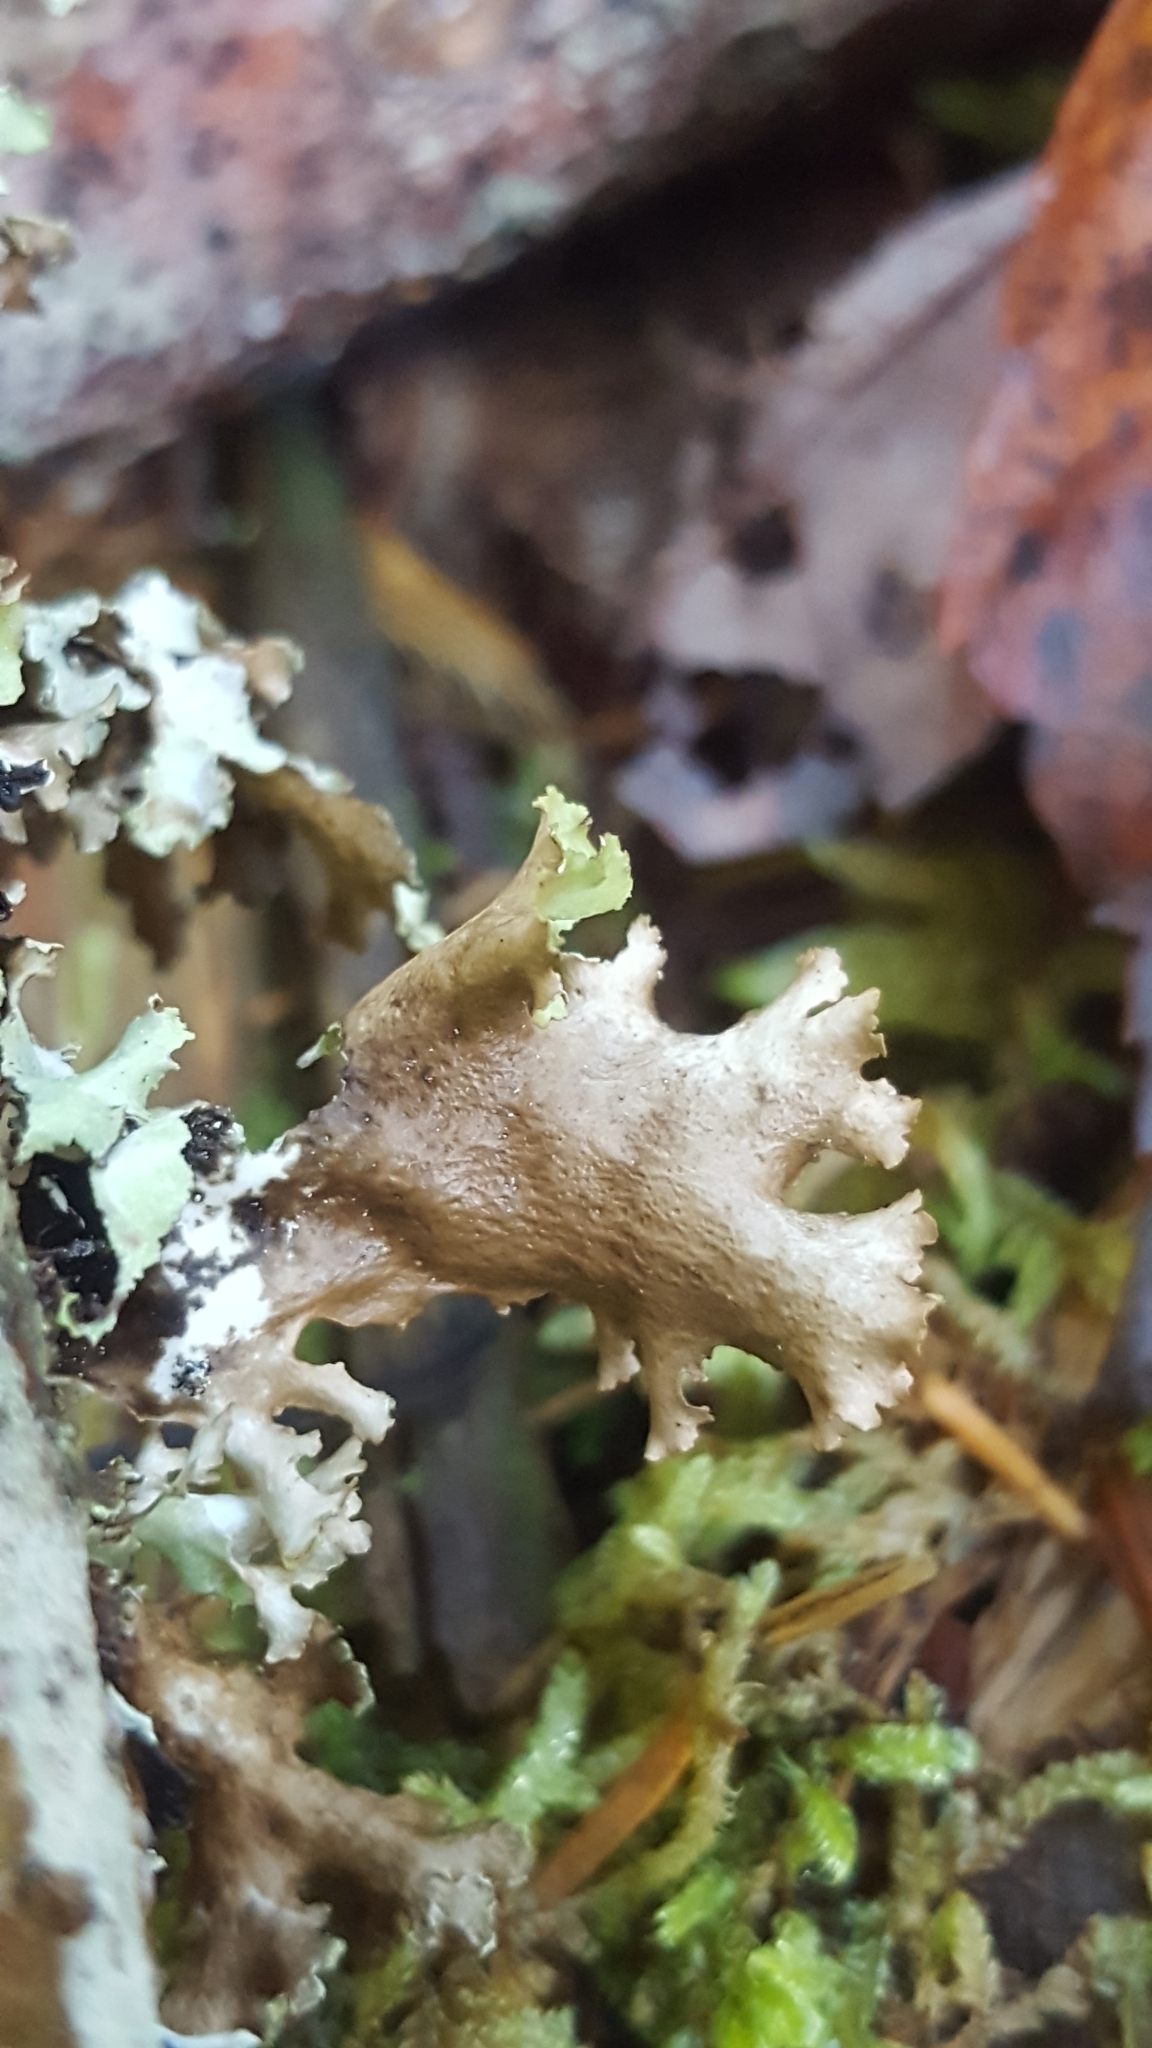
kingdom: Fungi
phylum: Ascomycota
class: Lecanoromycetes
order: Lecanorales
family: Parmeliaceae
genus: Platismatia
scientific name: Platismatia glauca
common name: Varied rag lichen
